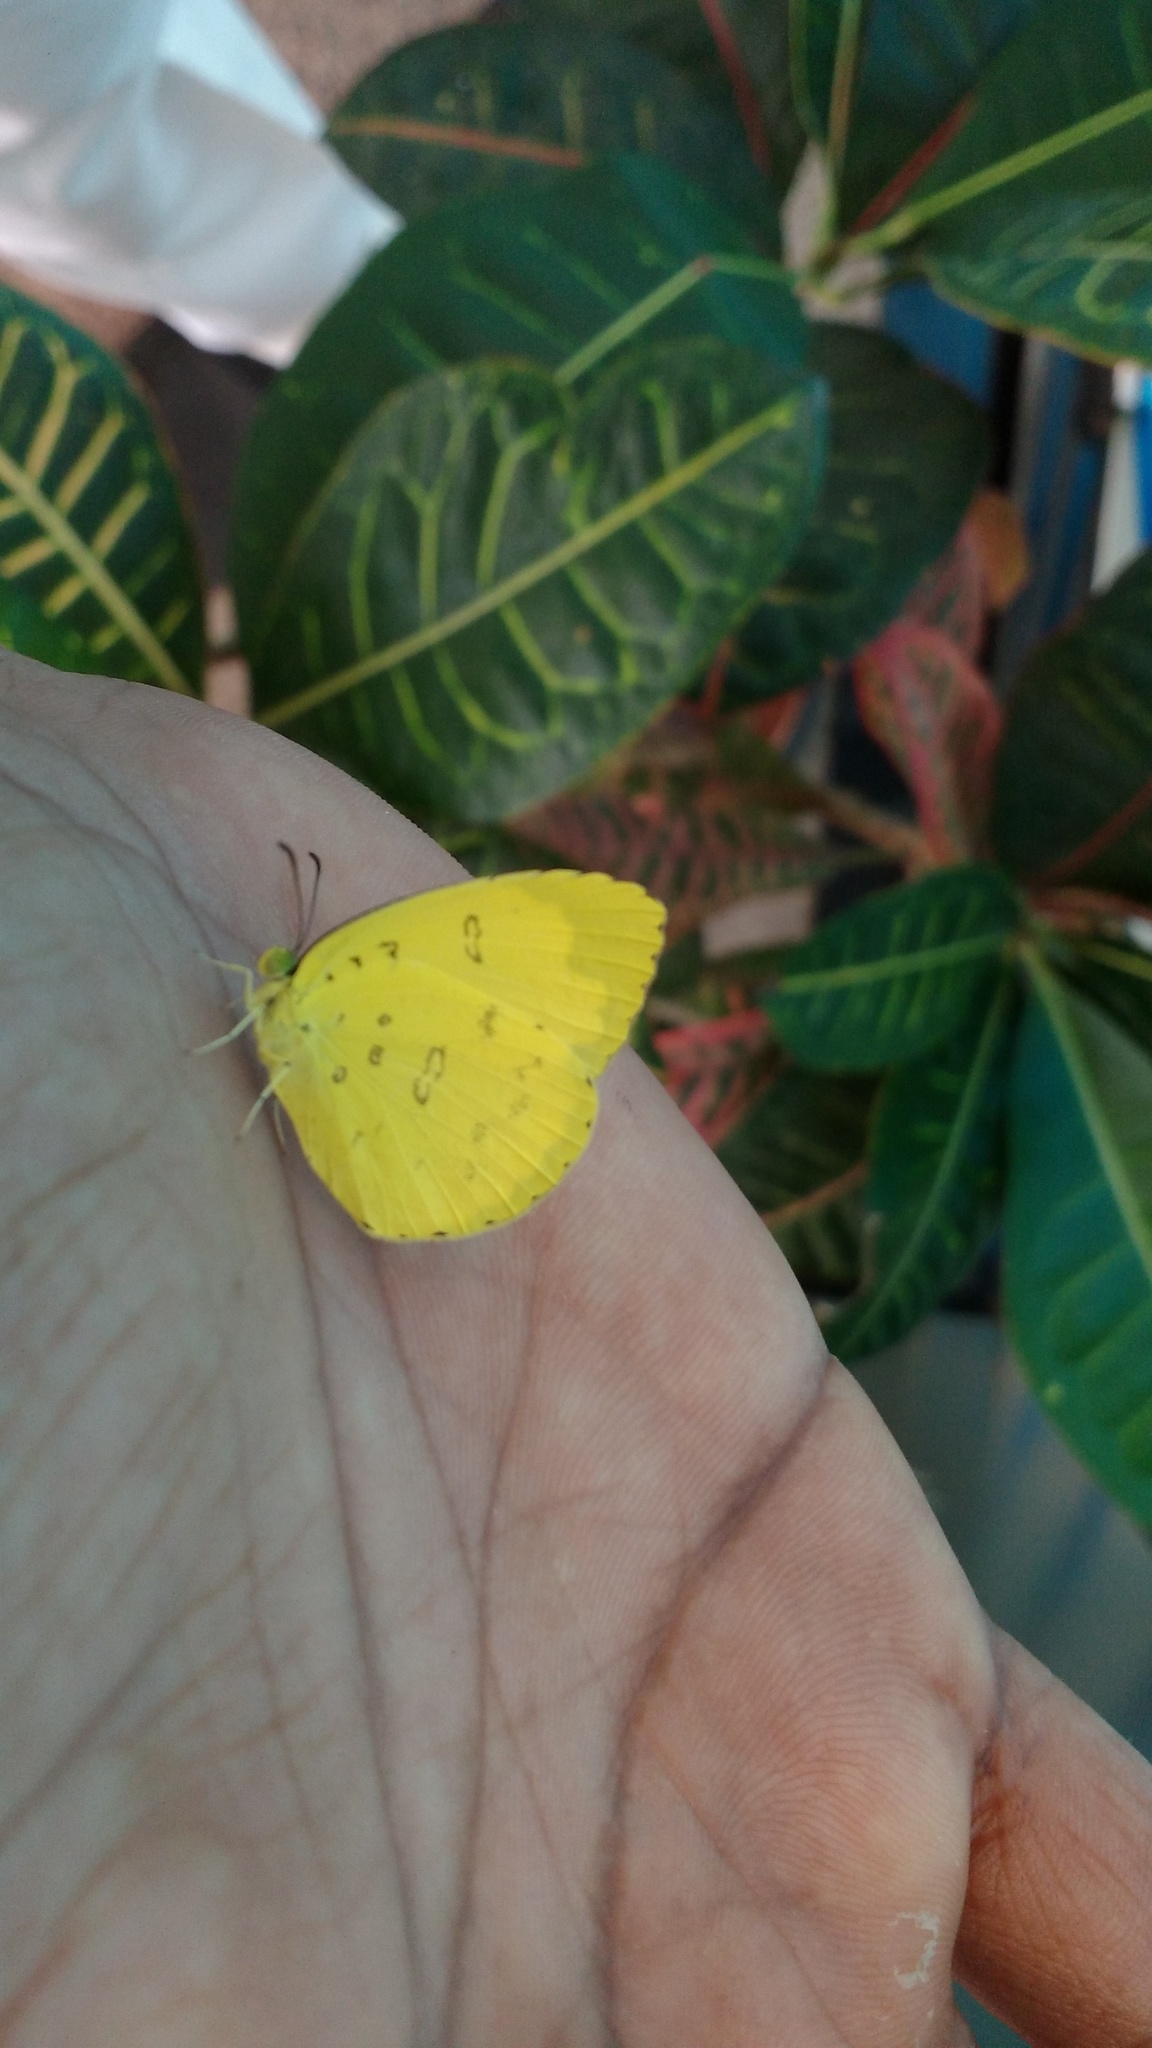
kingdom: Animalia
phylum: Arthropoda
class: Insecta
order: Lepidoptera
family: Pieridae
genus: Eurema
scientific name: Eurema blanda
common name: Three-spot grass yellow
